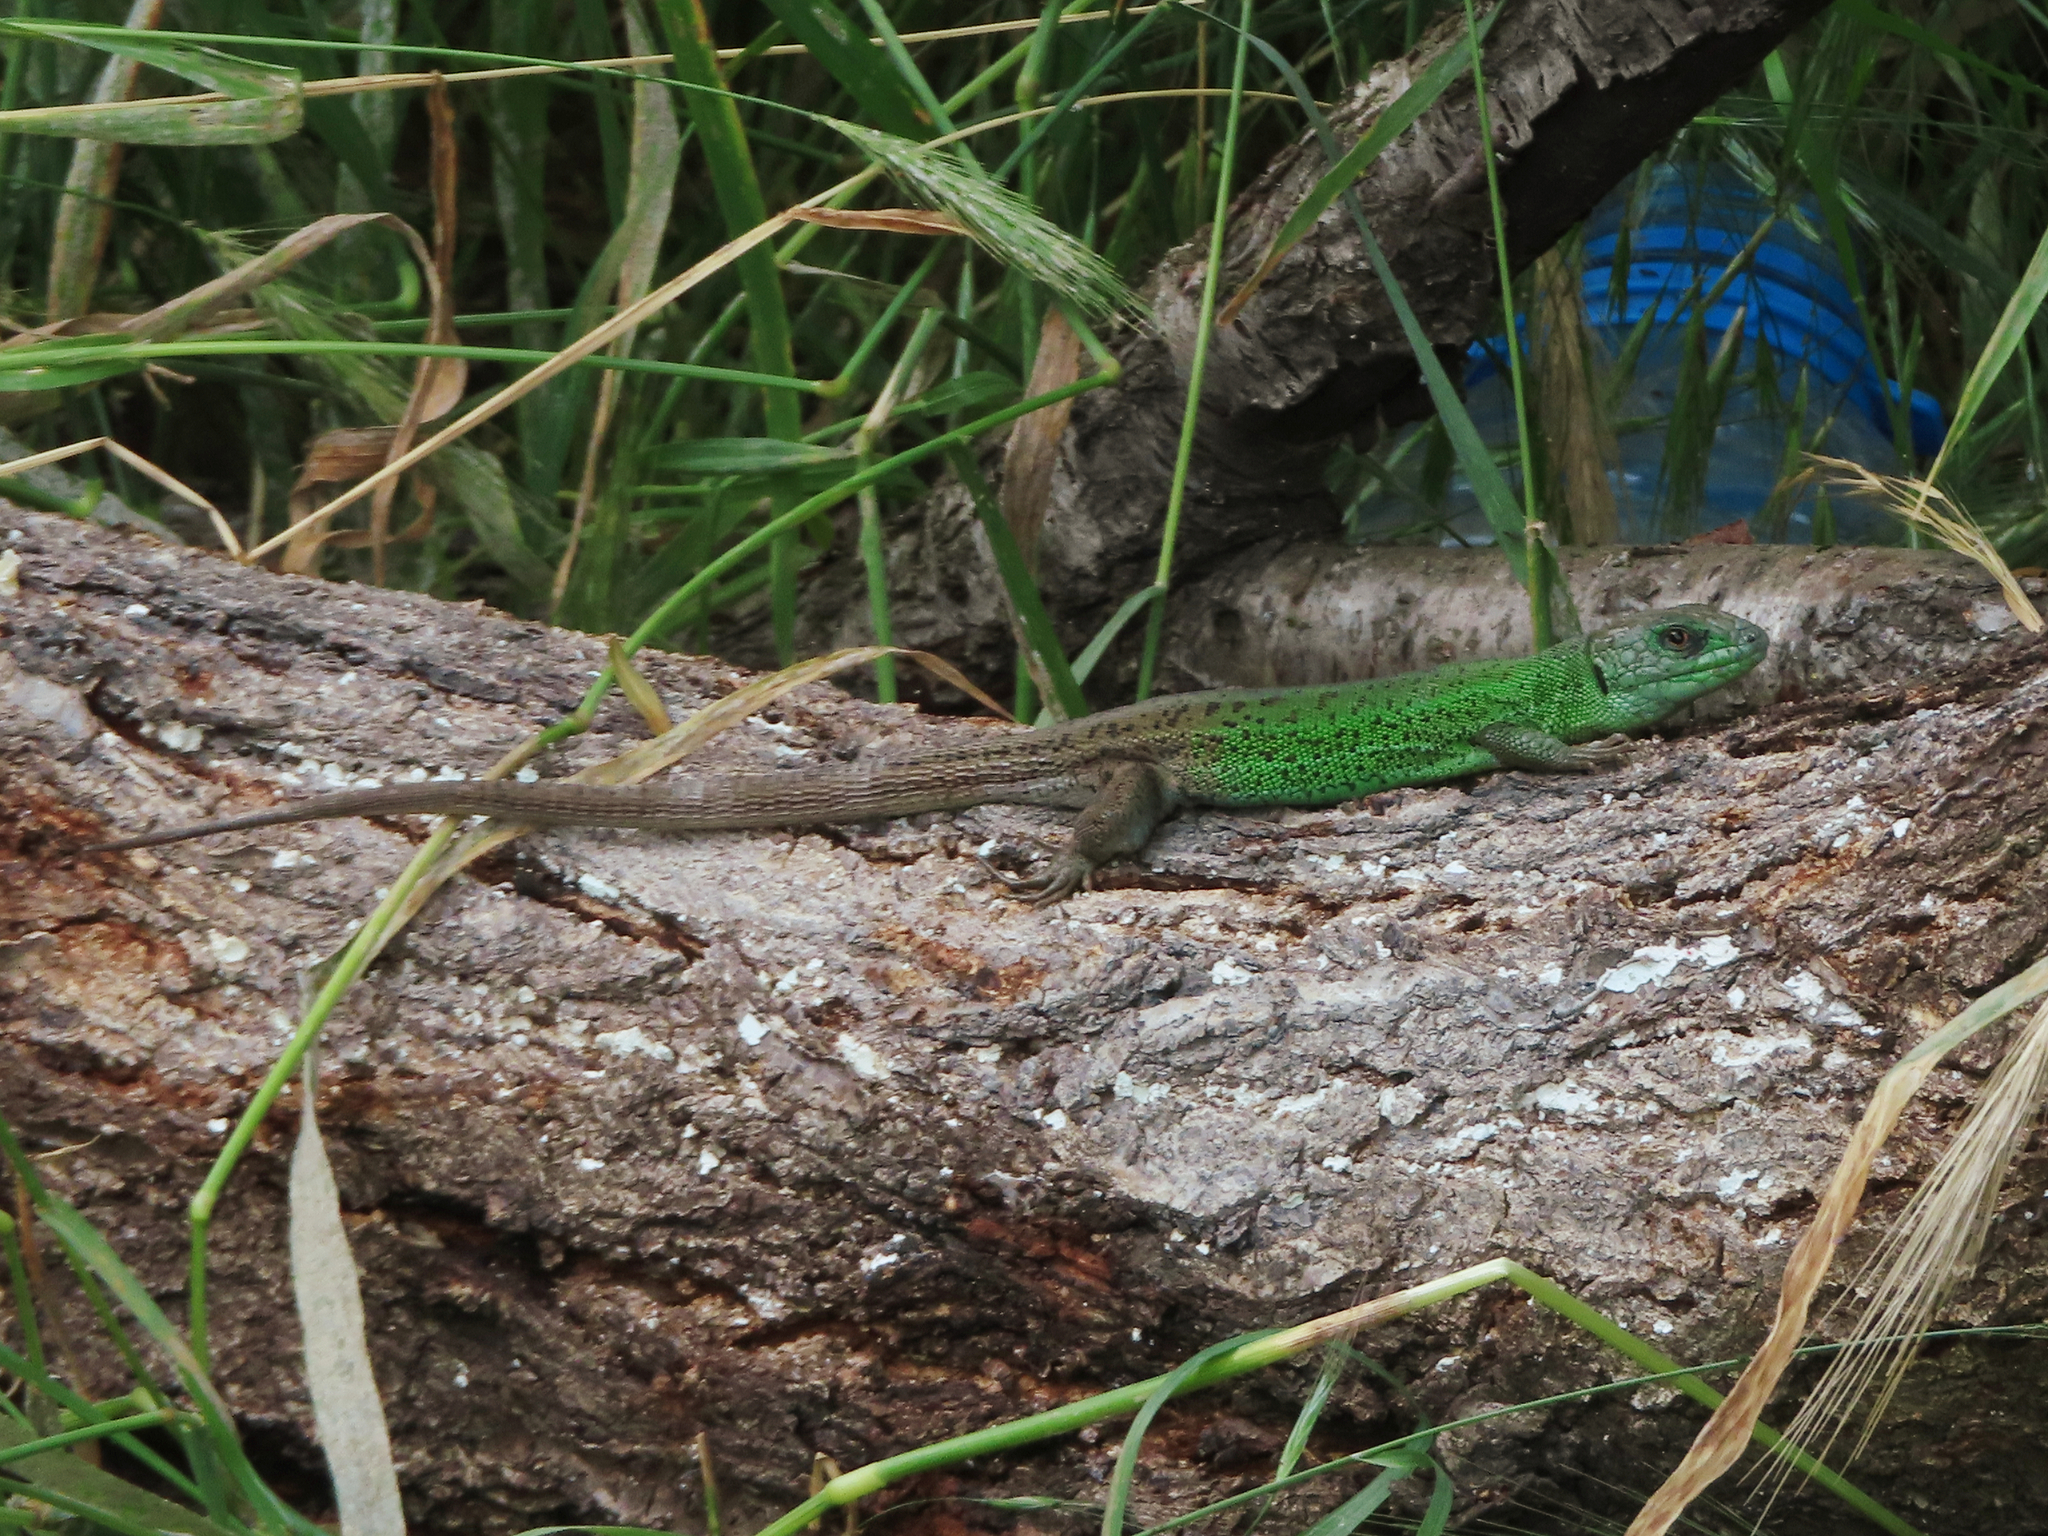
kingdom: Animalia
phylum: Chordata
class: Squamata
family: Lacertidae
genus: Lacerta
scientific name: Lacerta strigata
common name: Caspian green lizard
